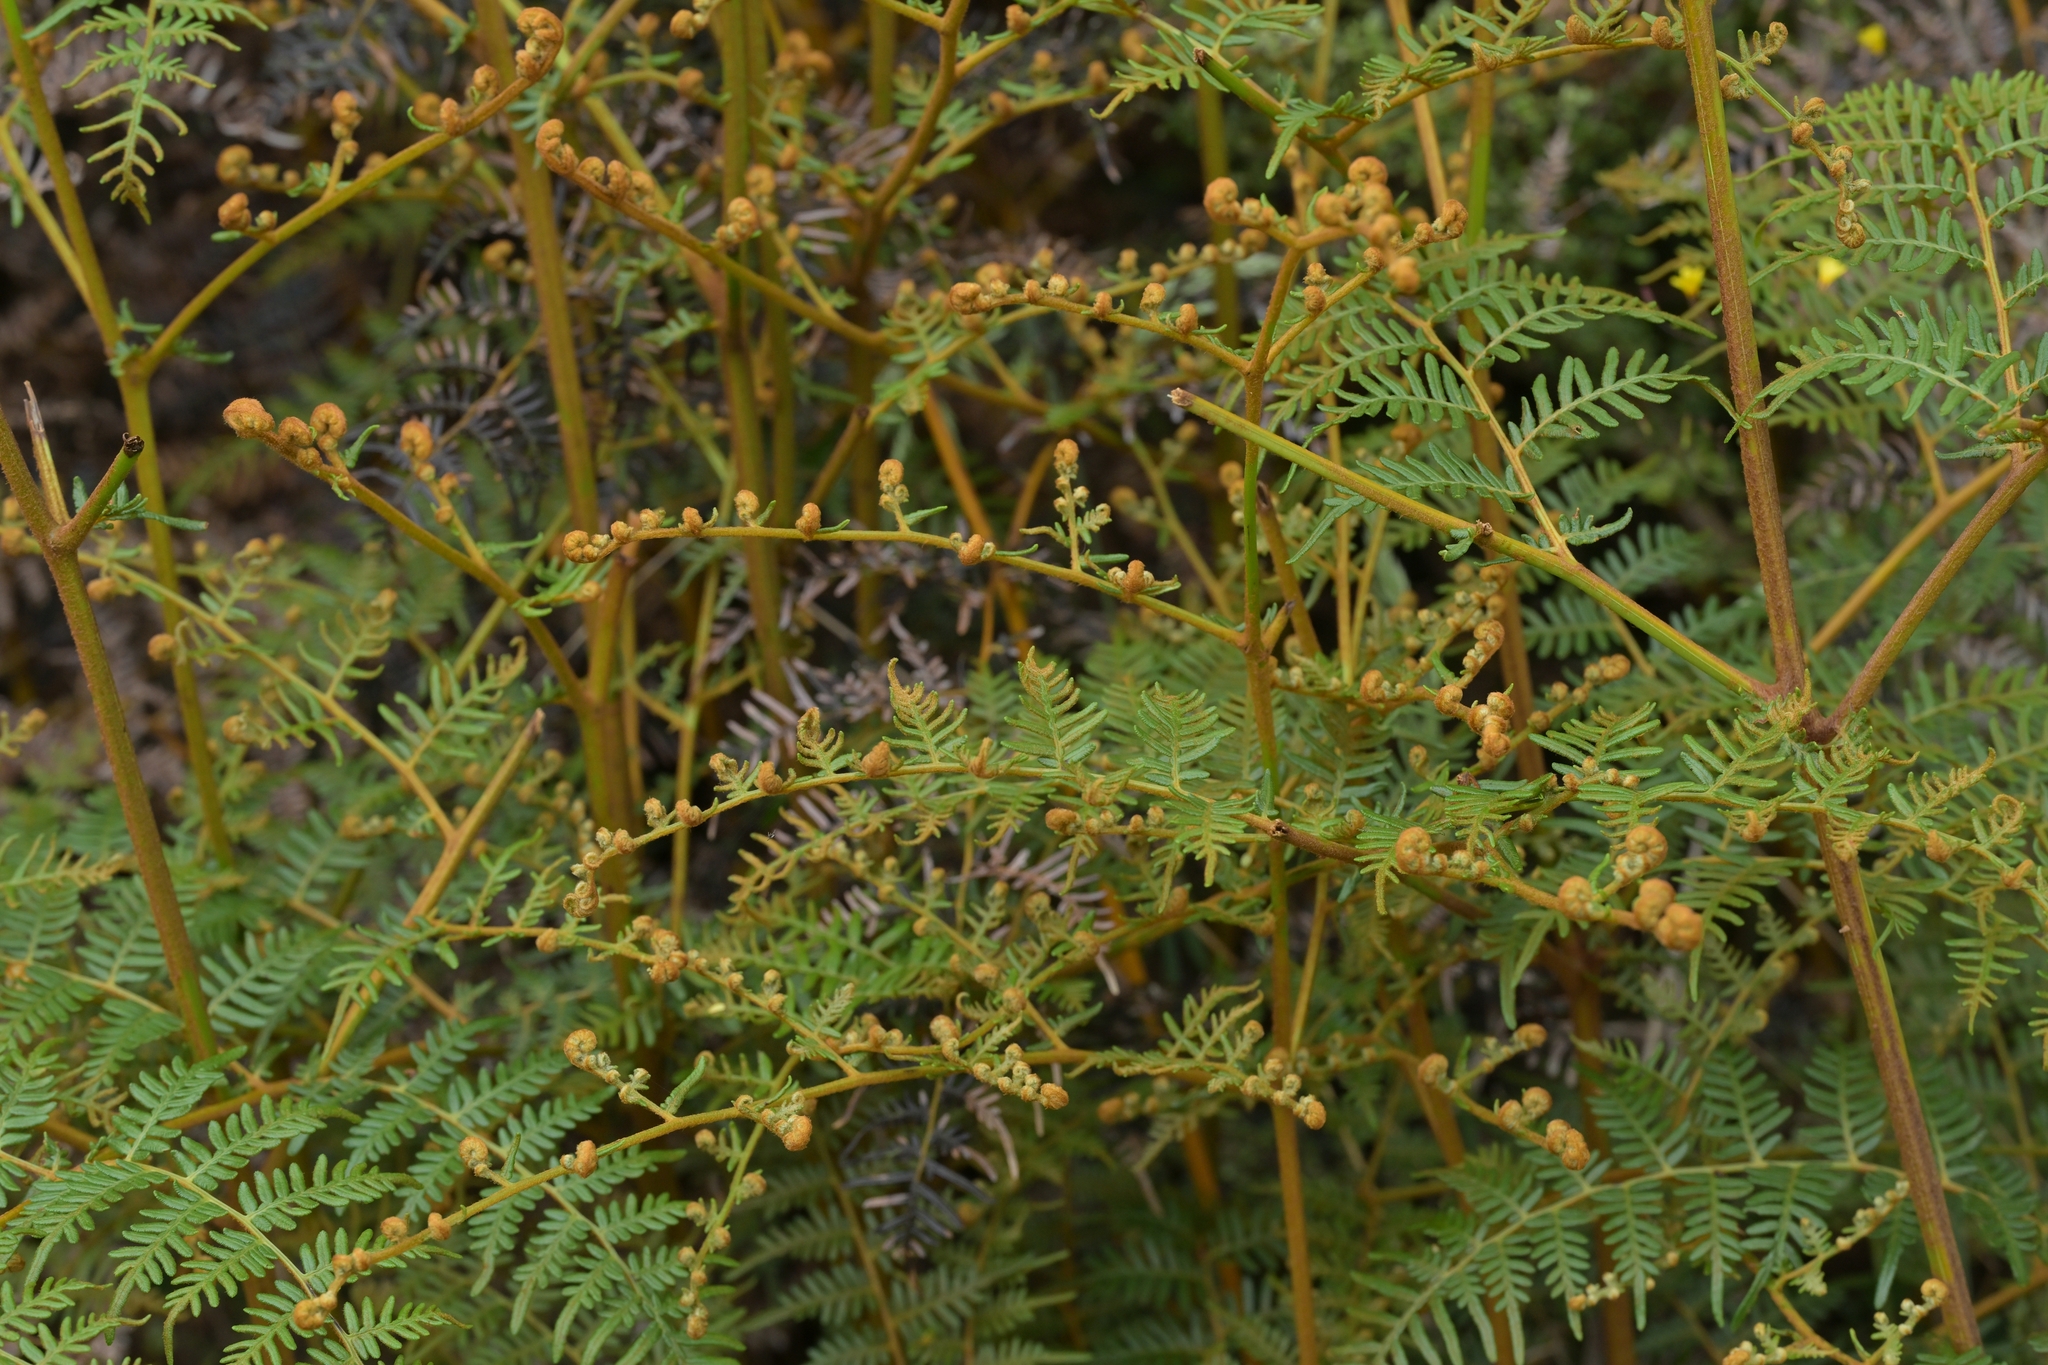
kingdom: Plantae
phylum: Tracheophyta
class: Polypodiopsida
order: Polypodiales
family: Dennstaedtiaceae
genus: Pteridium
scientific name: Pteridium esculentum
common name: Bracken fern
